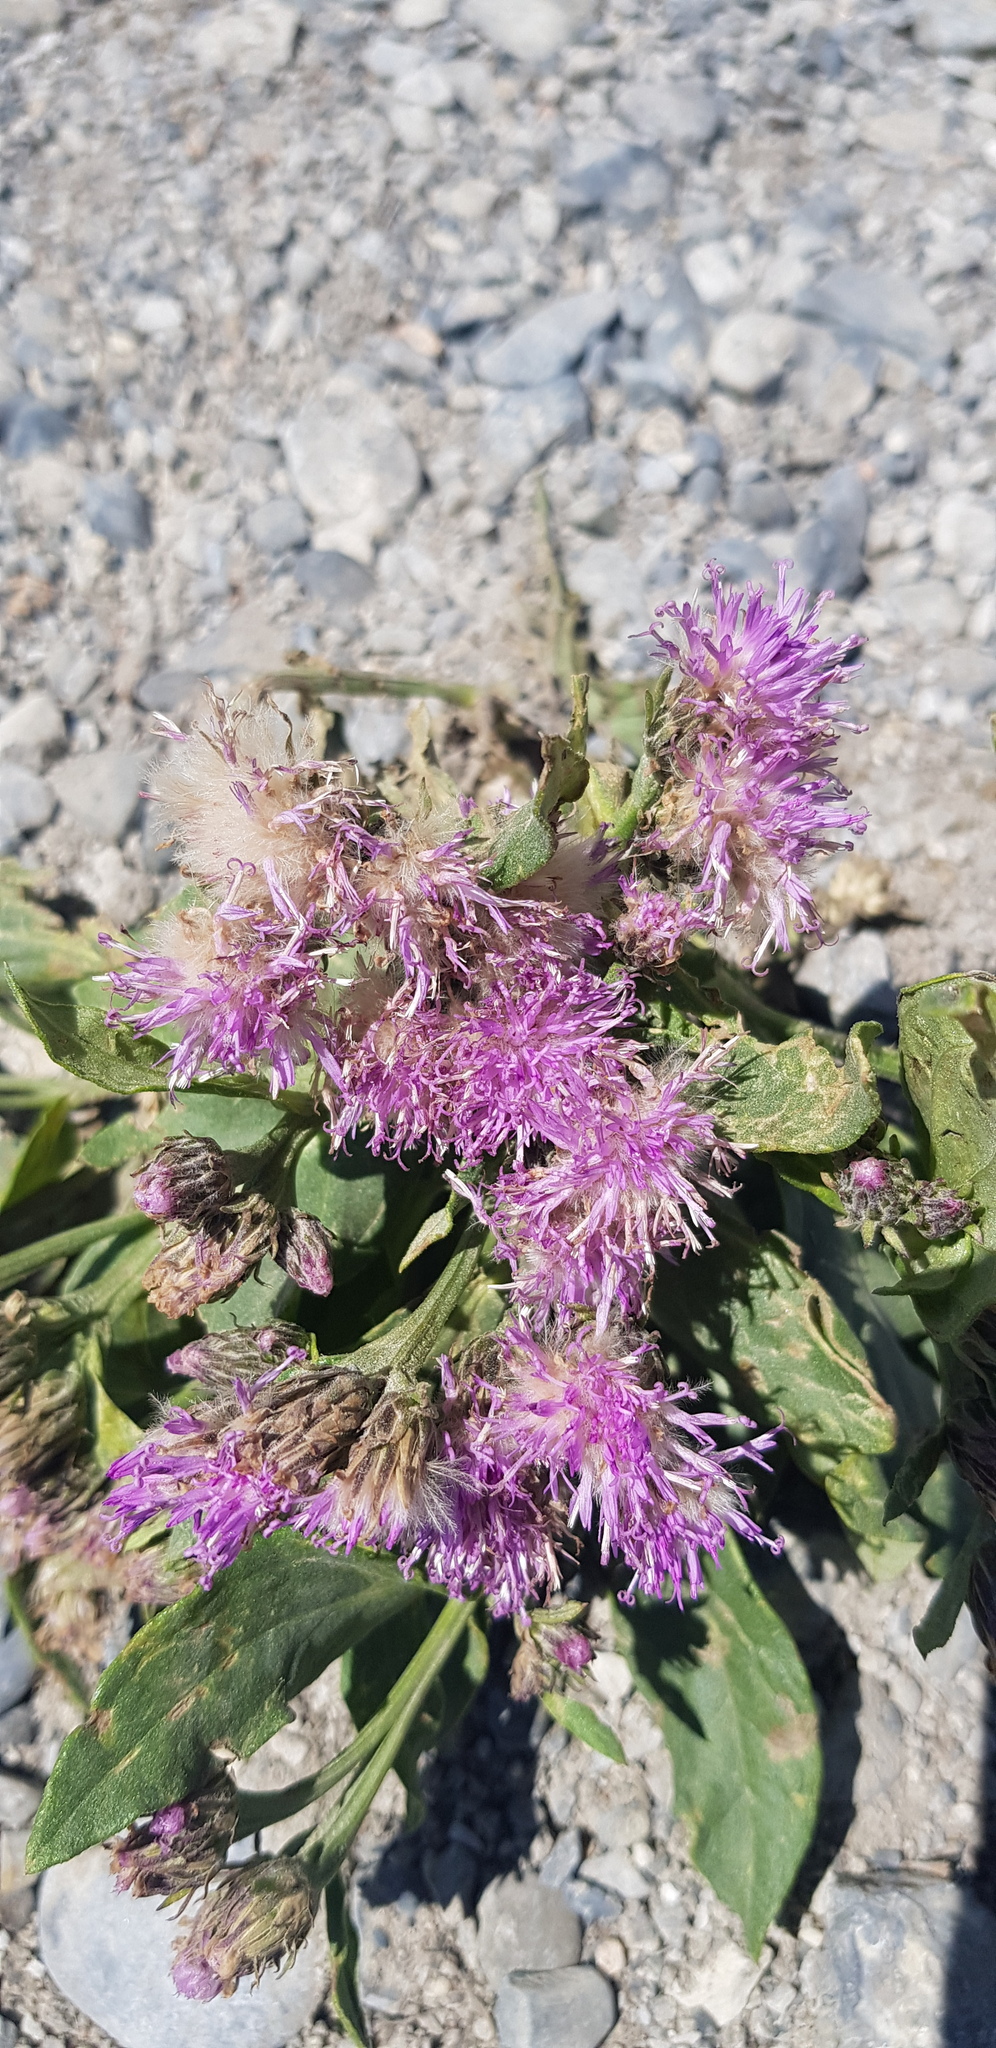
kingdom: Plantae
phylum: Tracheophyta
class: Magnoliopsida
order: Asterales
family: Asteraceae
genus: Saussurea
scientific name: Saussurea amara
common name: Alberta sawwort
